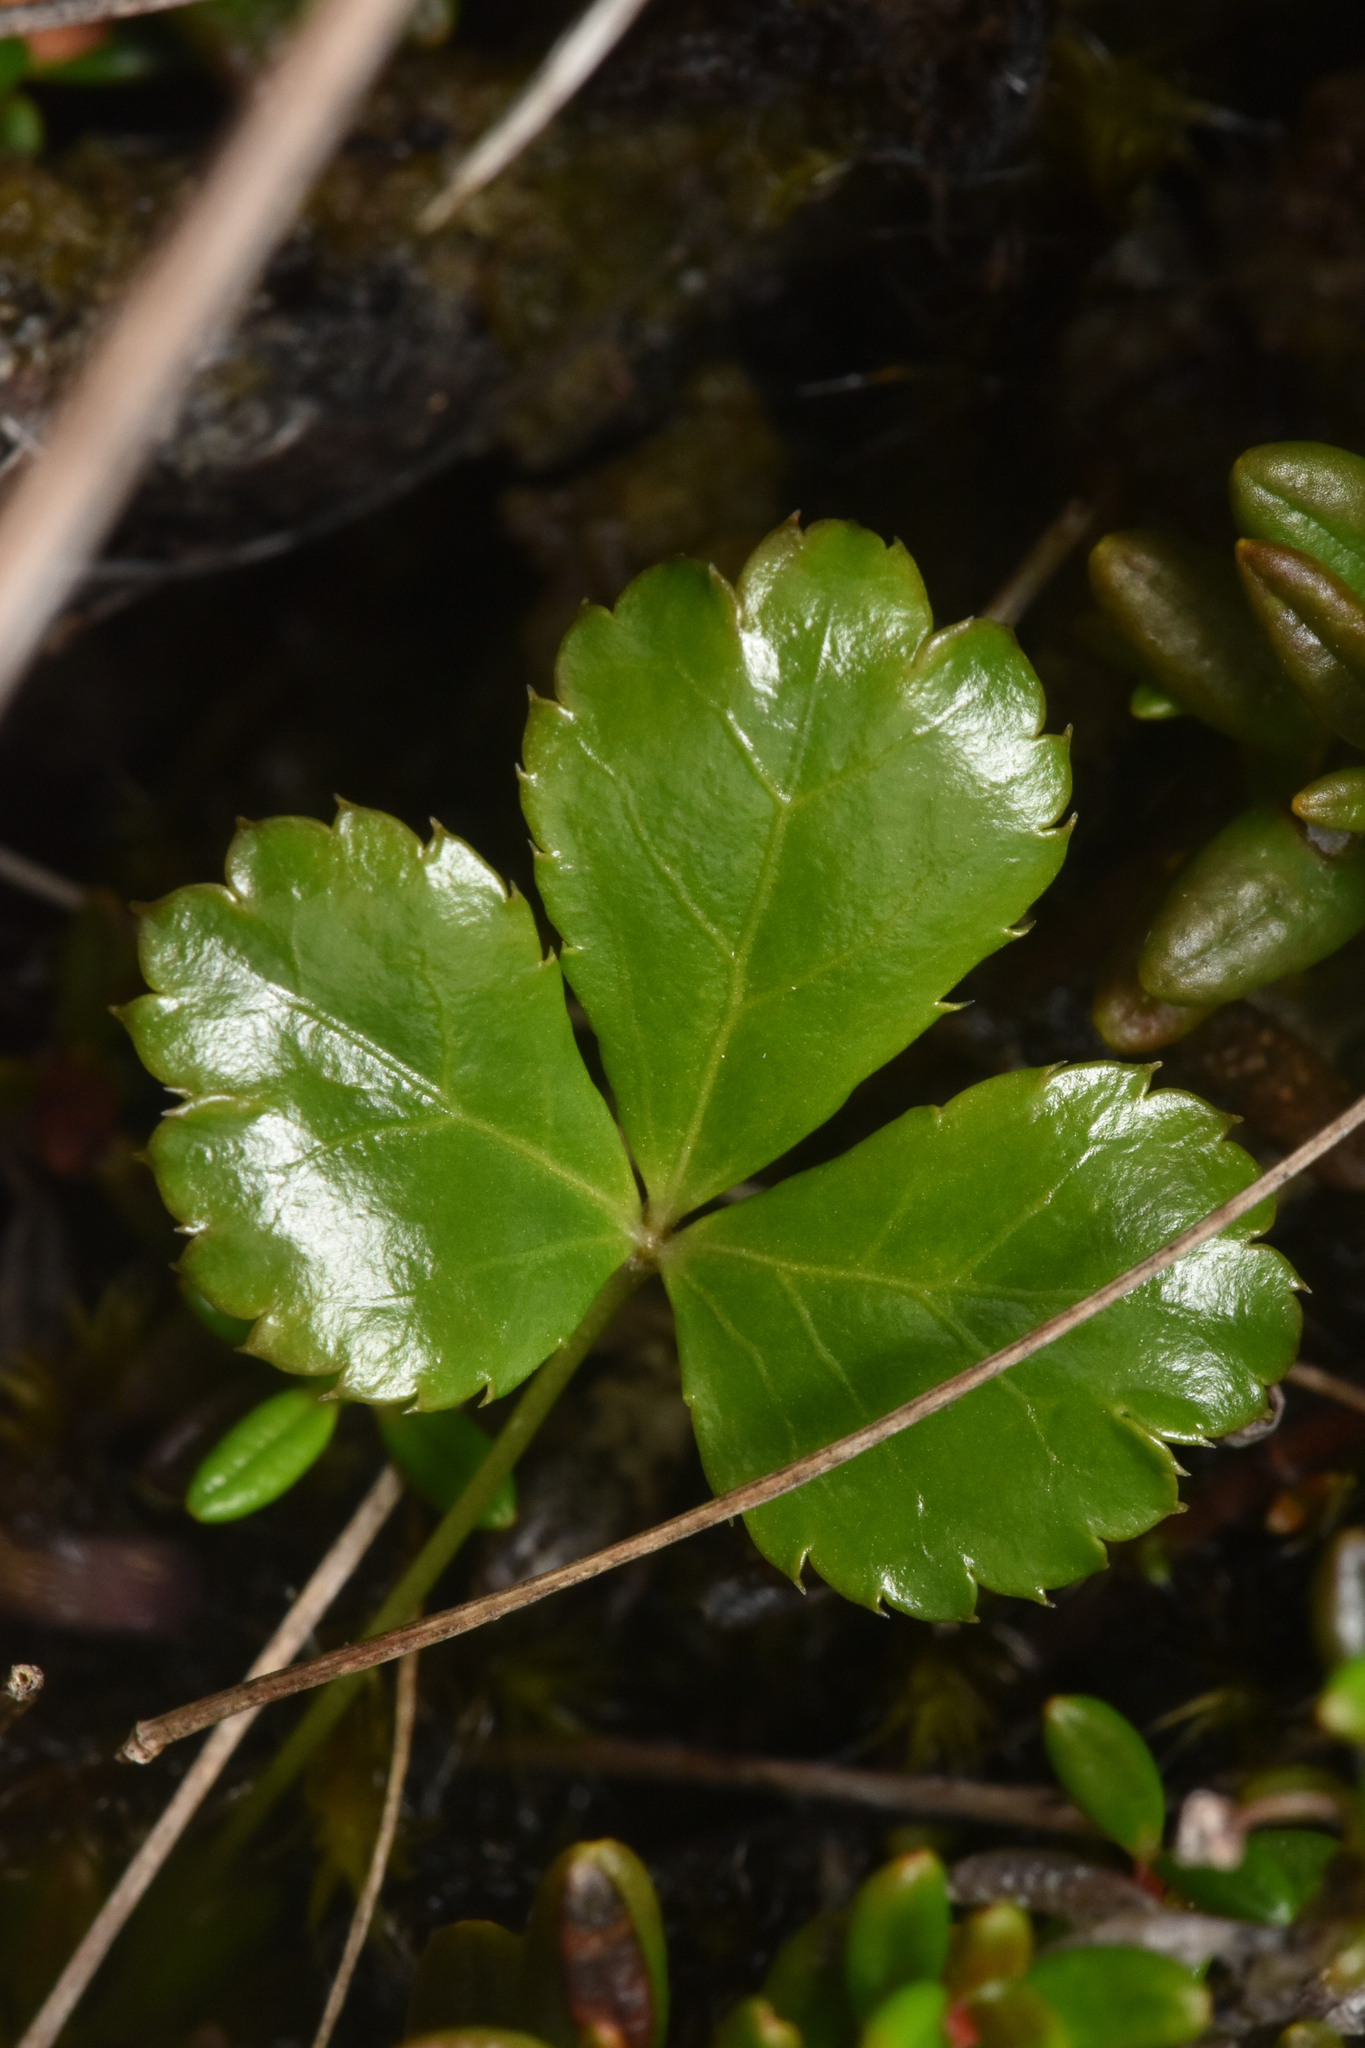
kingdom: Plantae
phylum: Tracheophyta
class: Magnoliopsida
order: Ranunculales
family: Ranunculaceae
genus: Coptis
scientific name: Coptis trifolia
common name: Canker-root
